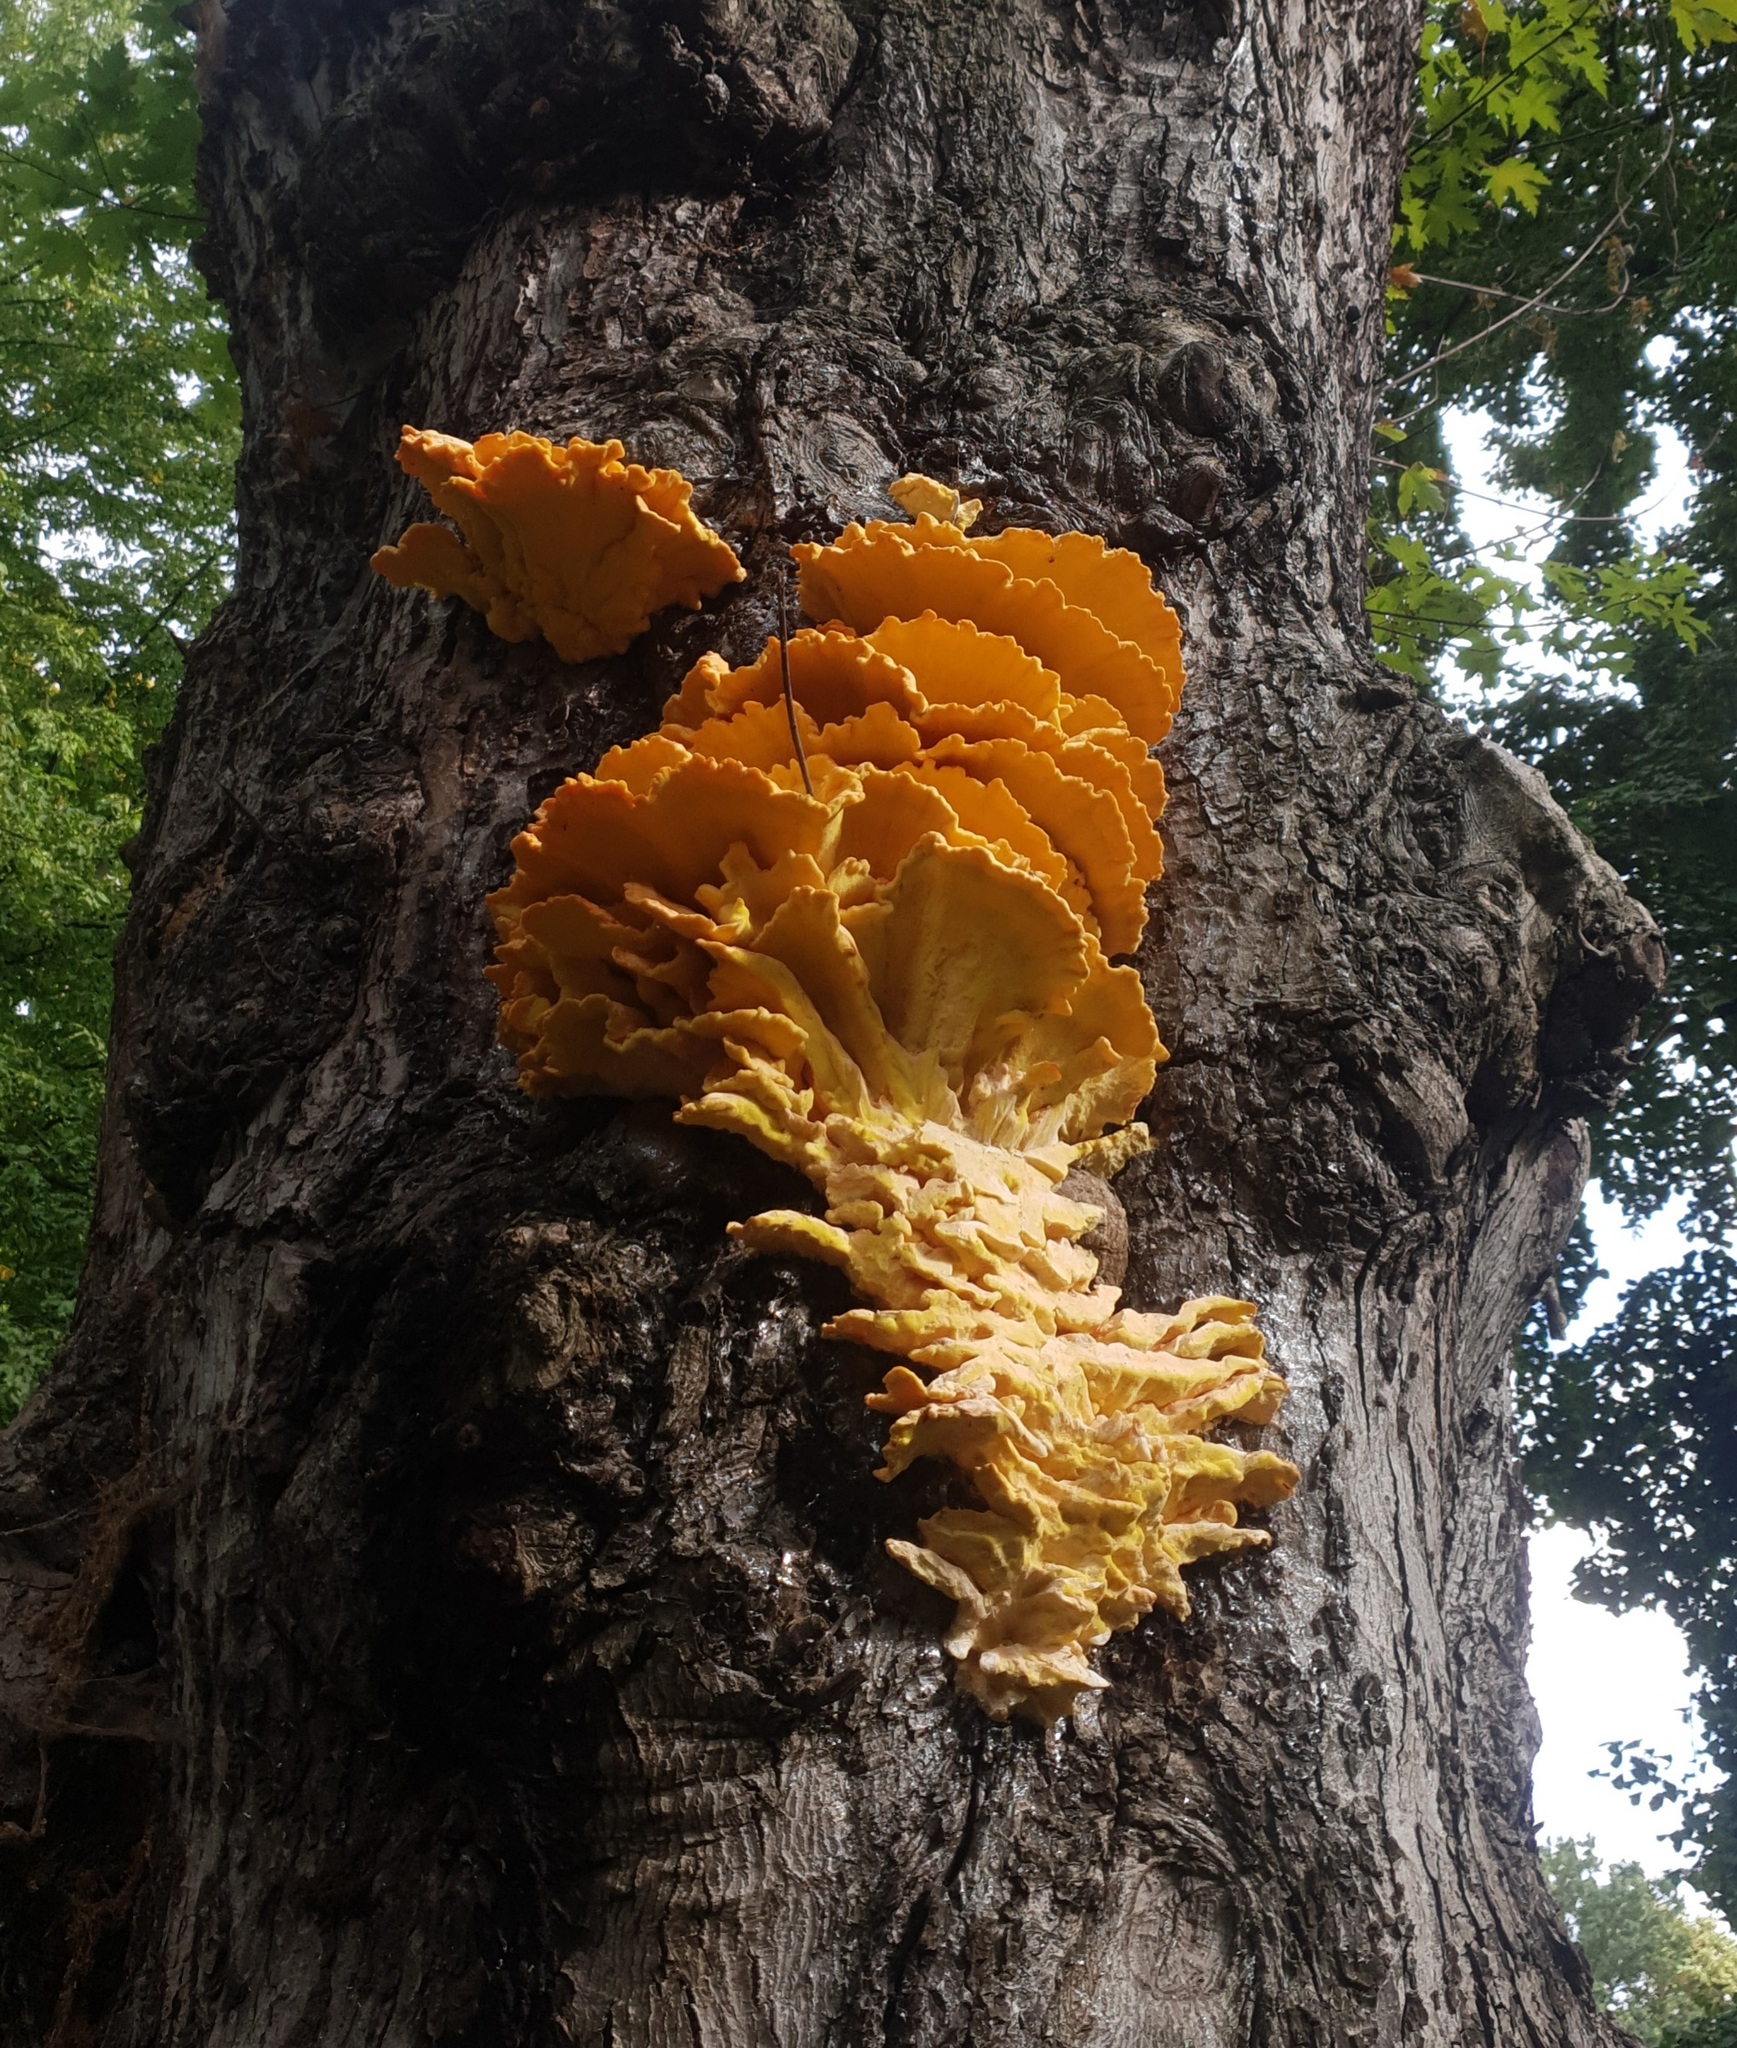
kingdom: Fungi
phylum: Basidiomycota
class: Agaricomycetes
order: Polyporales
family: Laetiporaceae
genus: Laetiporus
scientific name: Laetiporus sulphureus
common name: Chicken of the woods
